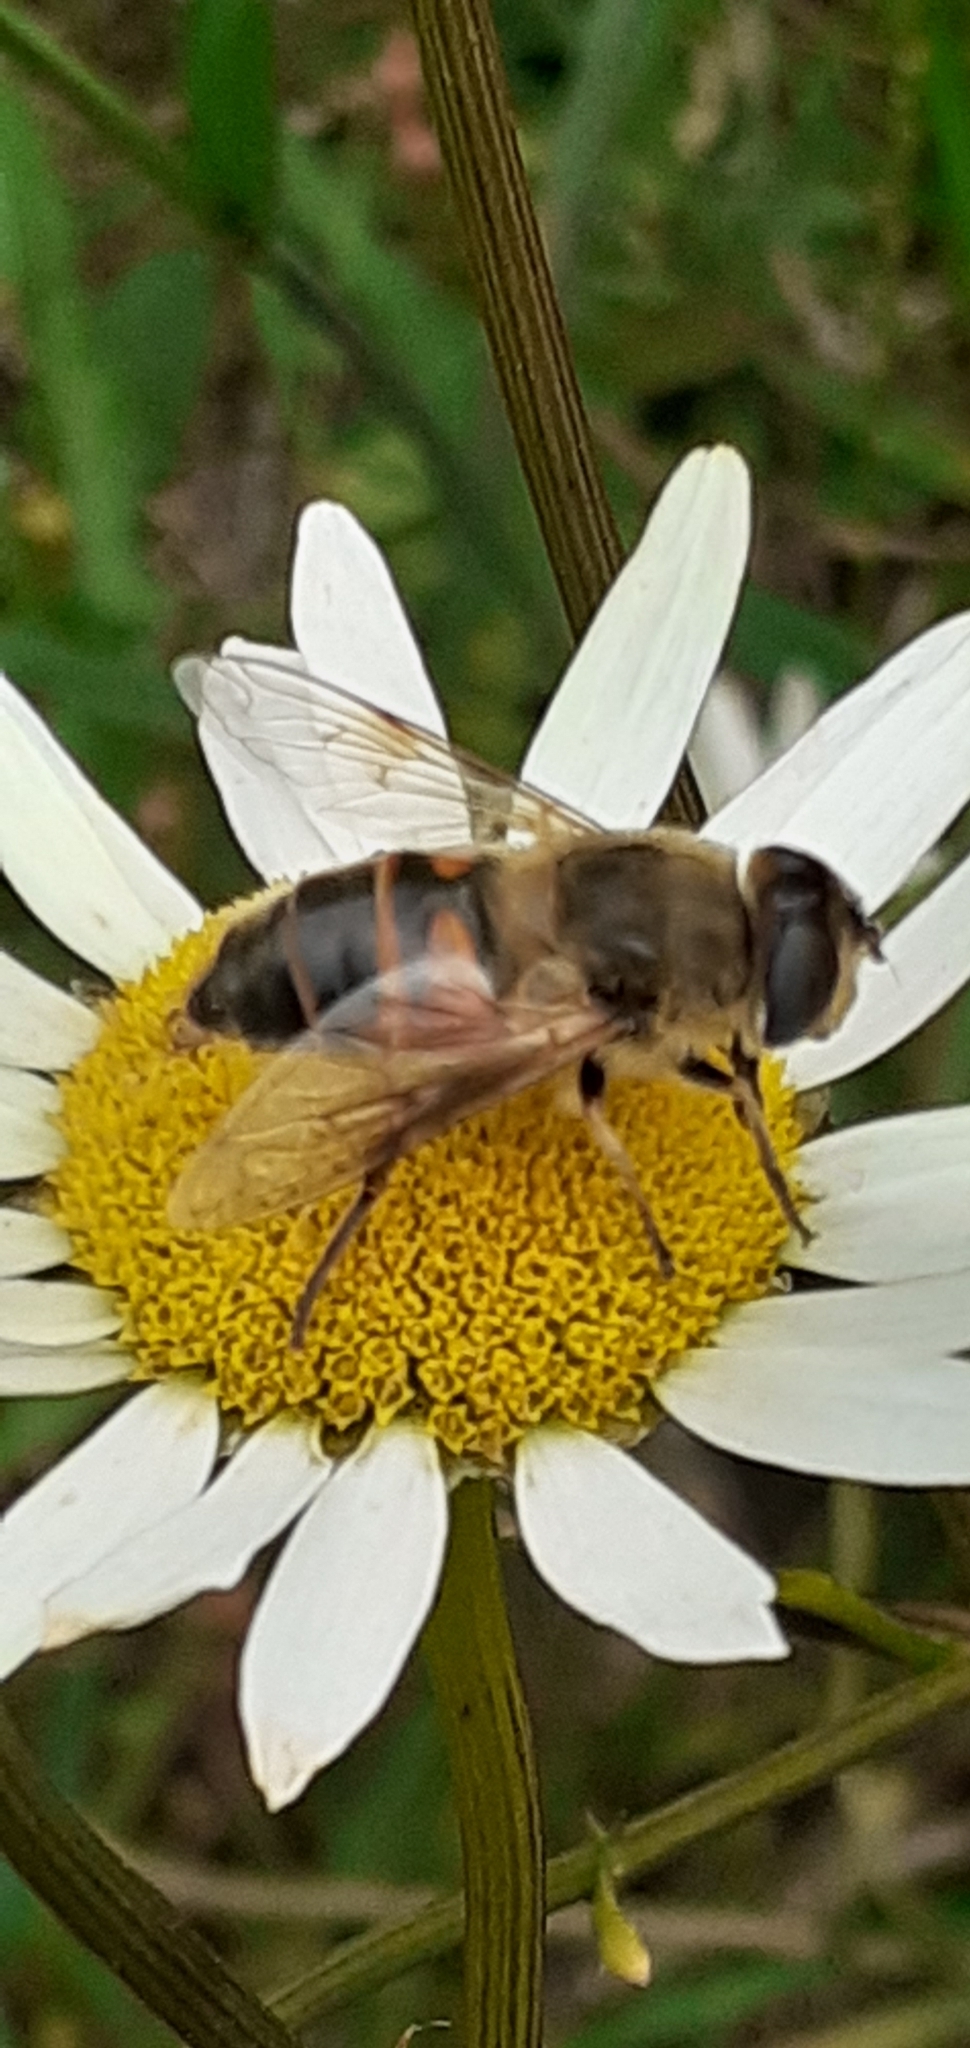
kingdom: Animalia
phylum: Arthropoda
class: Insecta
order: Diptera
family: Syrphidae
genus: Eristalis
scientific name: Eristalis tenax
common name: Drone fly
